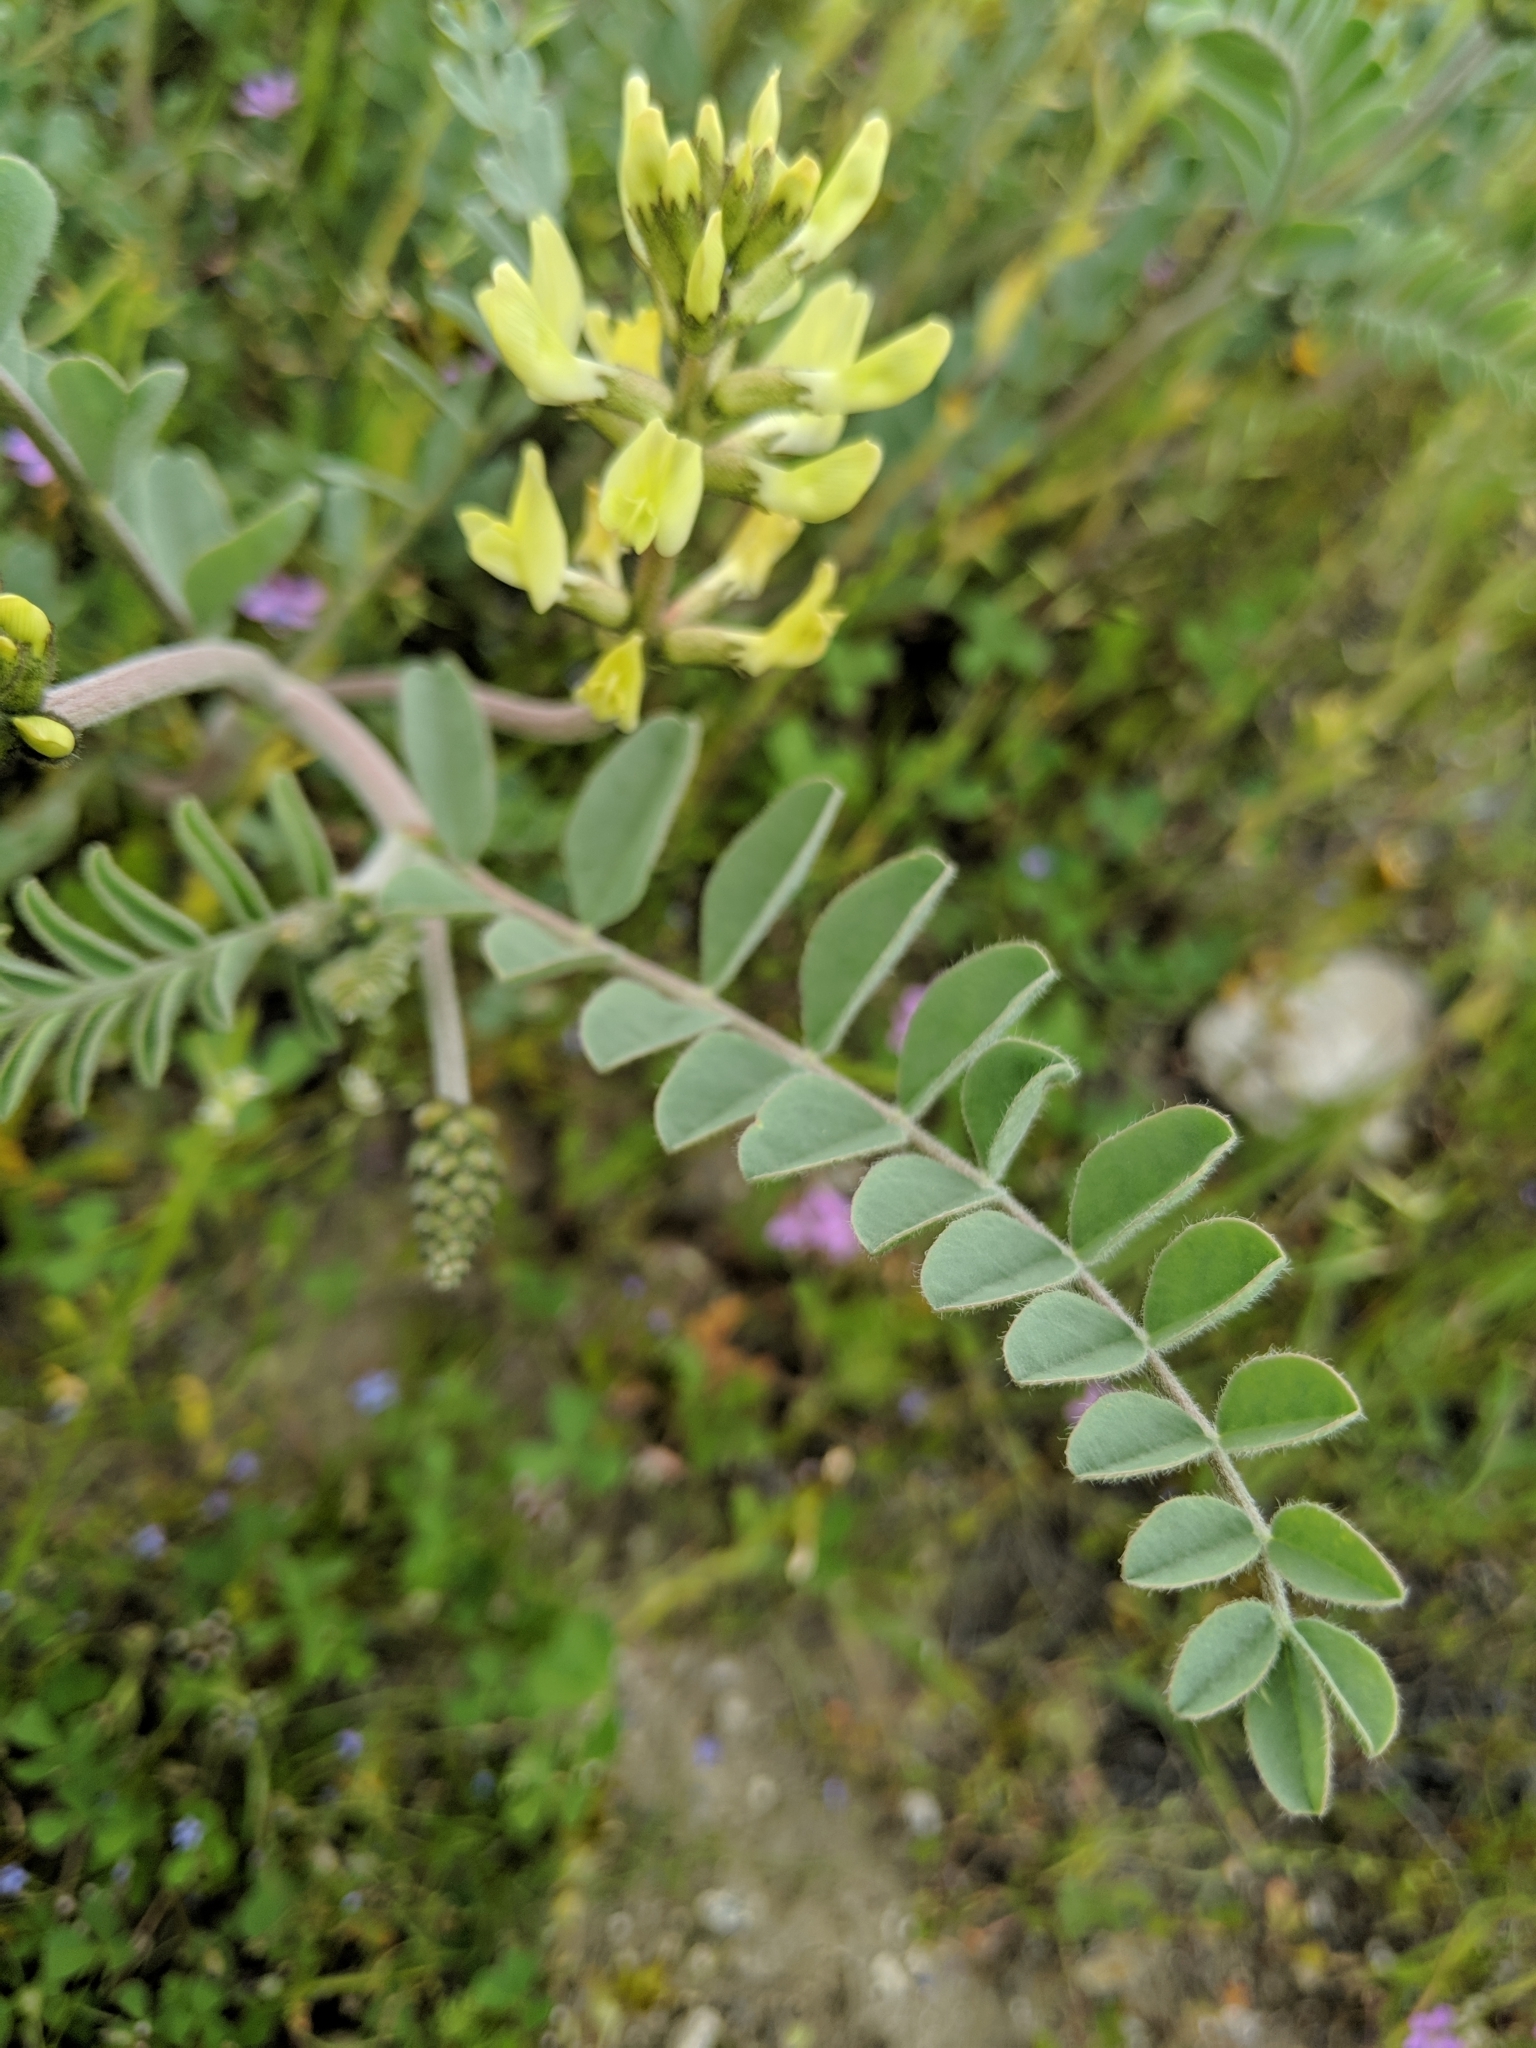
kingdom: Plantae
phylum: Tracheophyta
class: Magnoliopsida
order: Fabales
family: Fabaceae
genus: Astragalus
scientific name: Astragalus lentiginosus
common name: Freckled milkvetch
